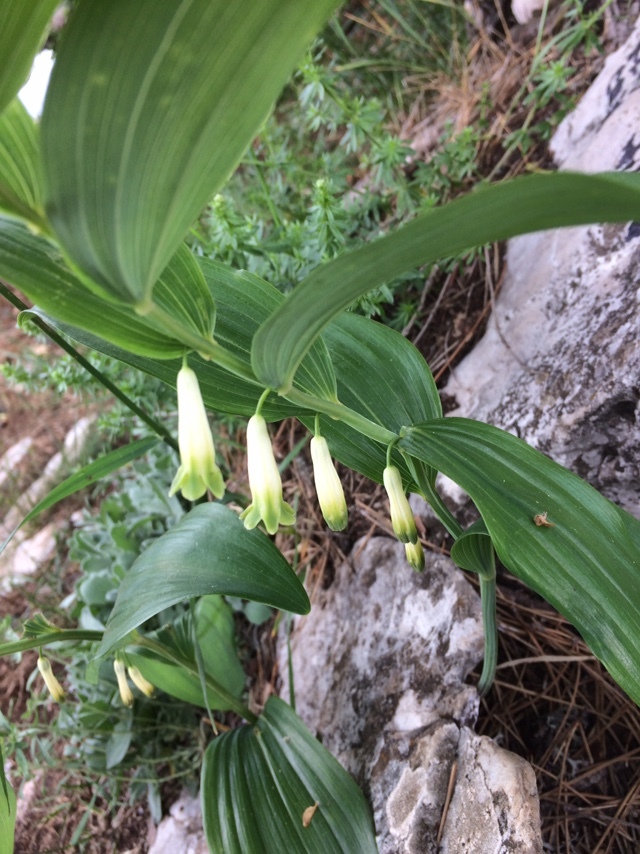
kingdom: Plantae
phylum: Tracheophyta
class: Liliopsida
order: Asparagales
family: Asparagaceae
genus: Polygonatum
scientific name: Polygonatum odoratum
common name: Angular solomon's-seal
